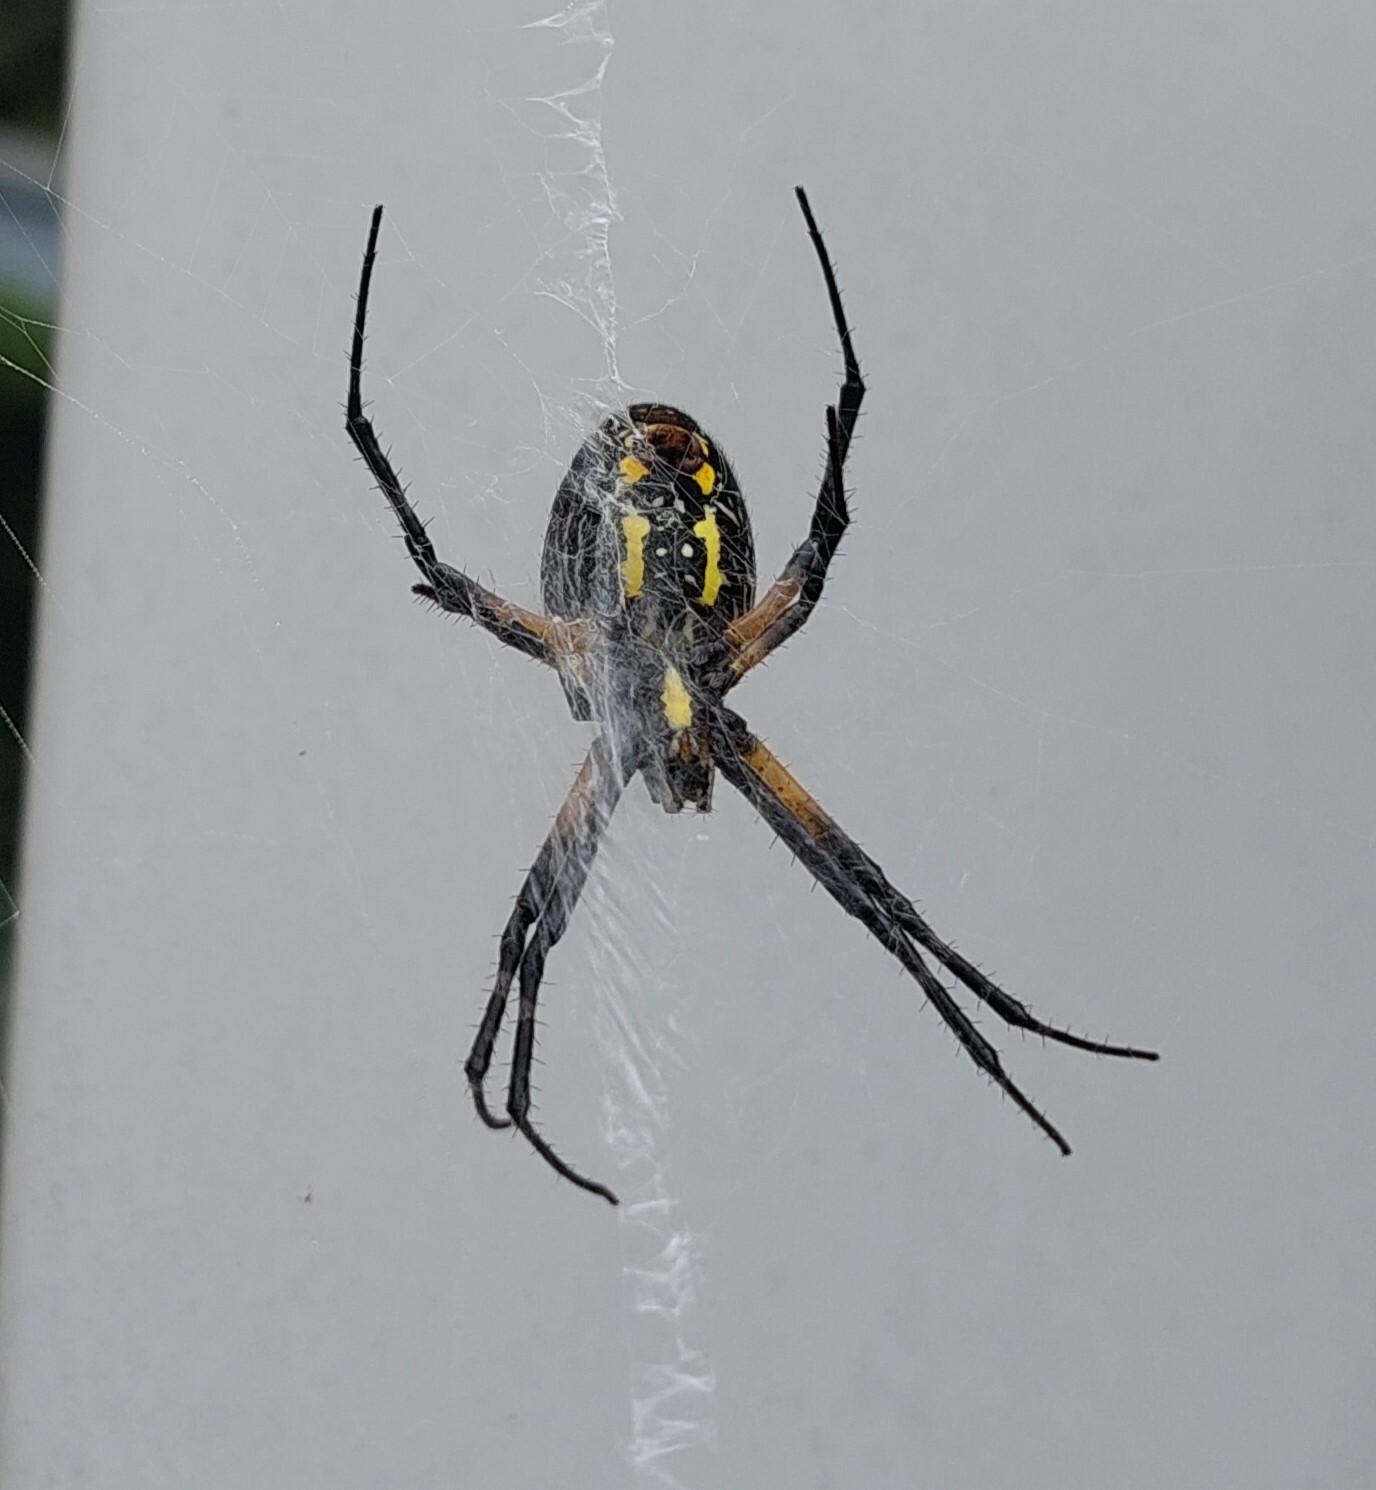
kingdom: Animalia
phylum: Arthropoda
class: Arachnida
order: Araneae
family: Araneidae
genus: Argiope
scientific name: Argiope aurantia
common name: Orb weavers
